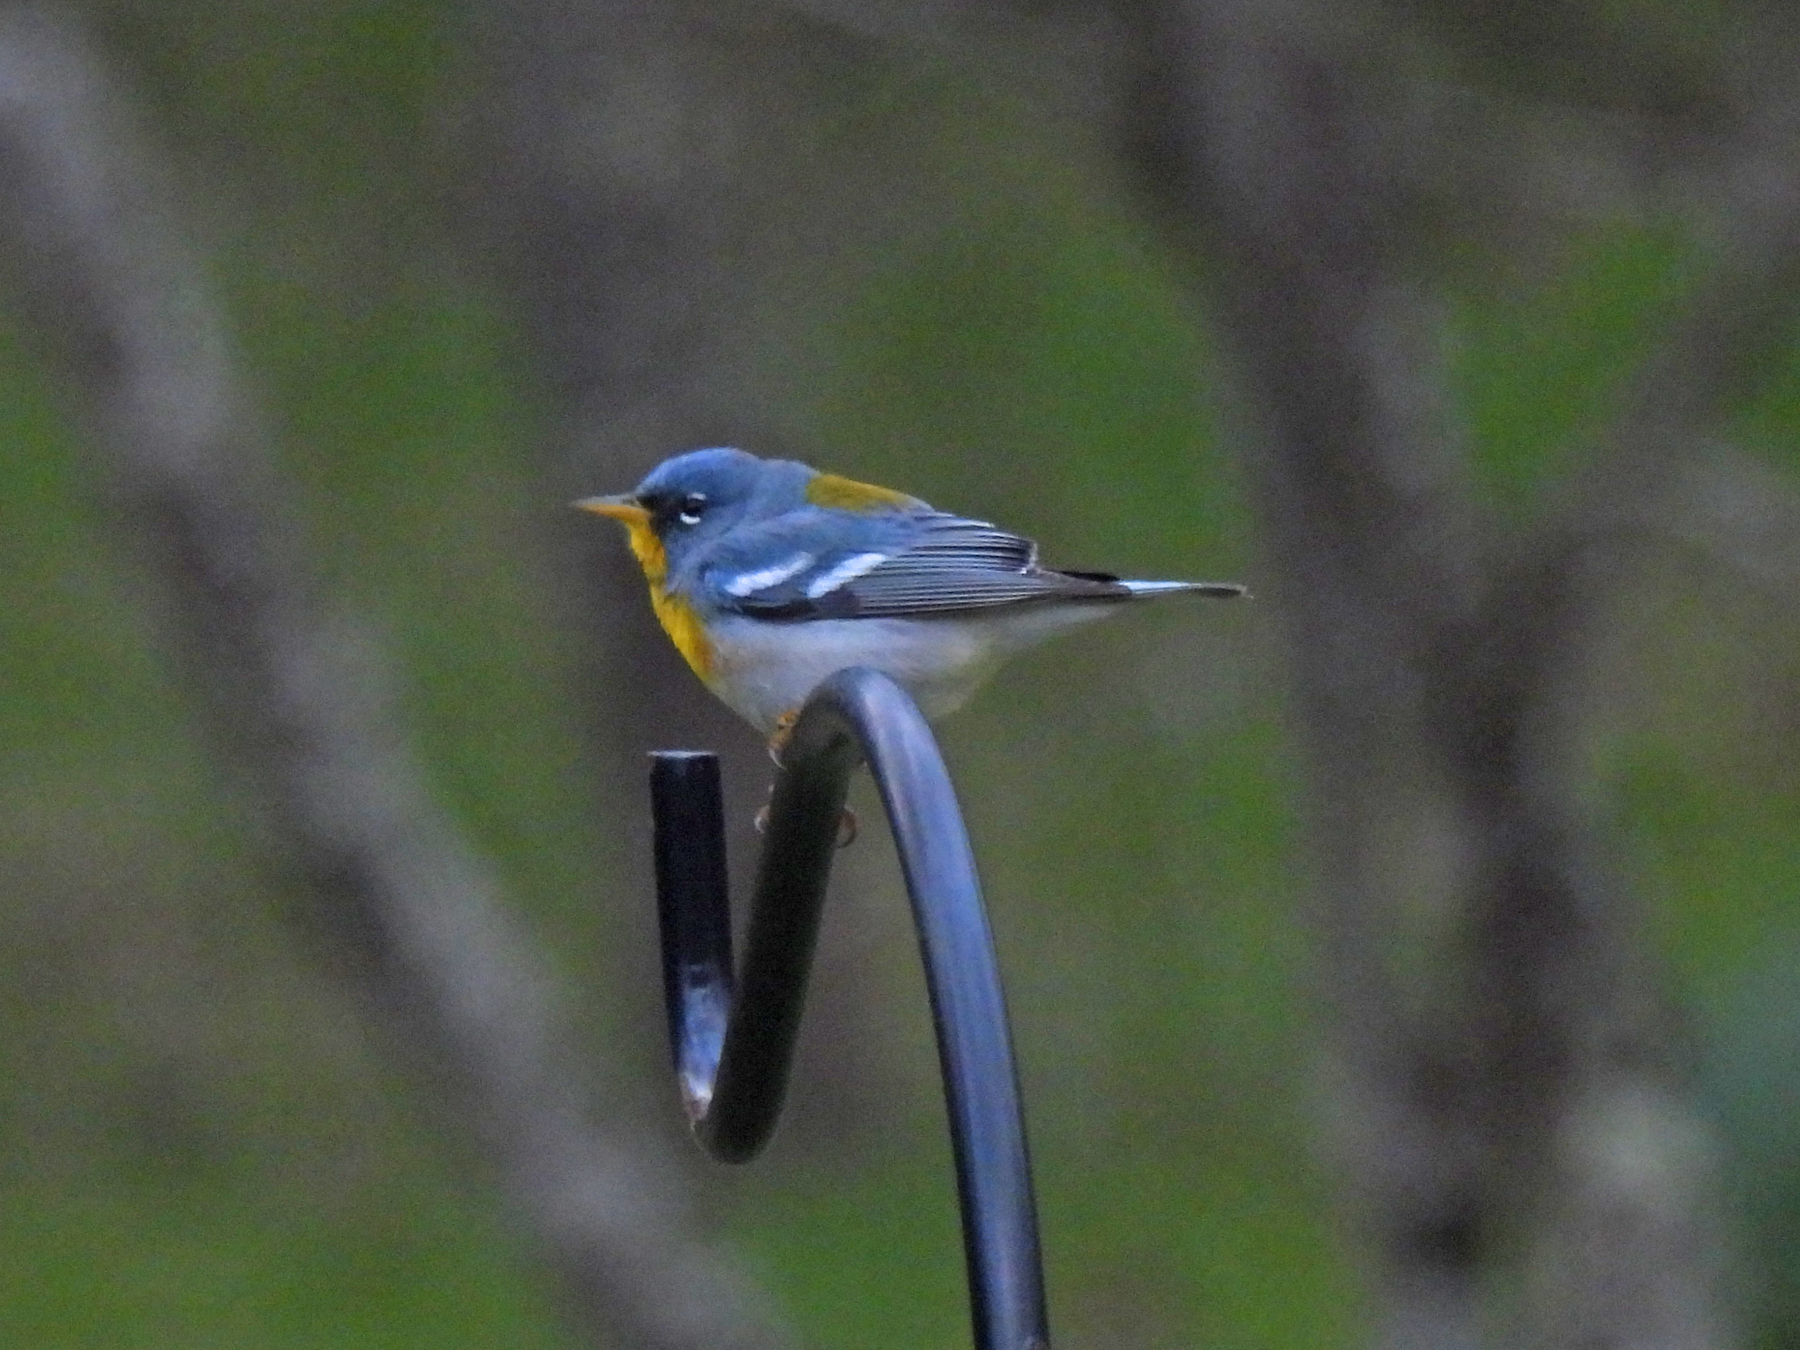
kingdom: Animalia
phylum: Chordata
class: Aves
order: Passeriformes
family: Parulidae
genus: Setophaga
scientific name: Setophaga americana
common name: Northern parula
